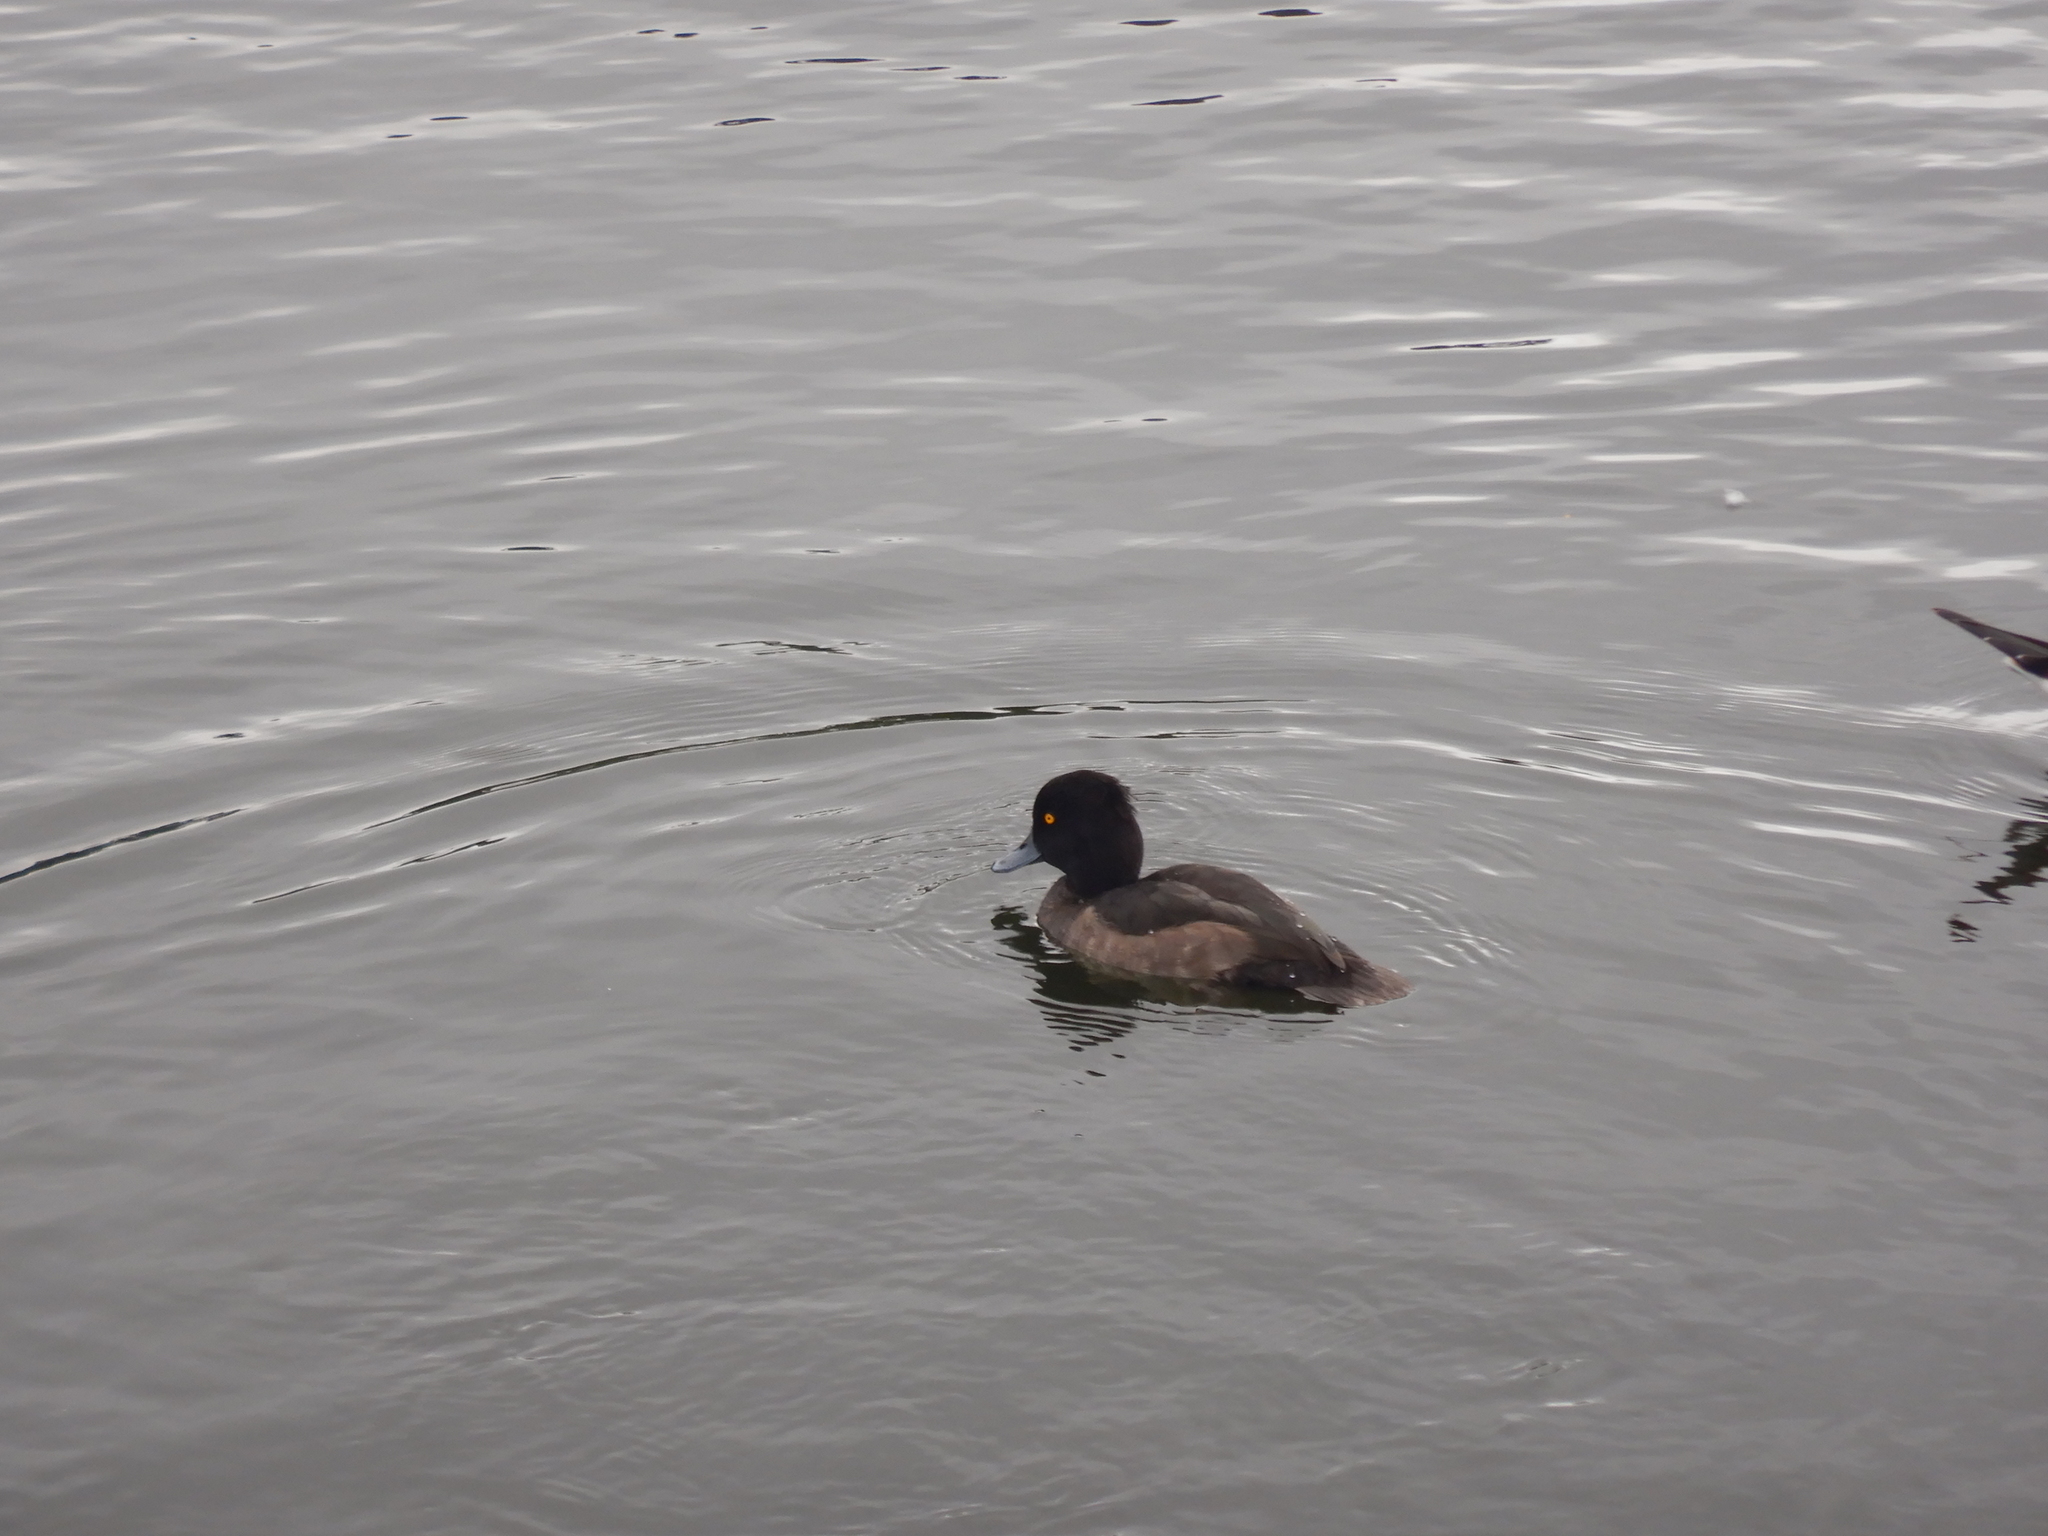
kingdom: Animalia
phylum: Chordata
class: Aves
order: Anseriformes
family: Anatidae
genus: Aythya
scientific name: Aythya fuligula
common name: Tufted duck
